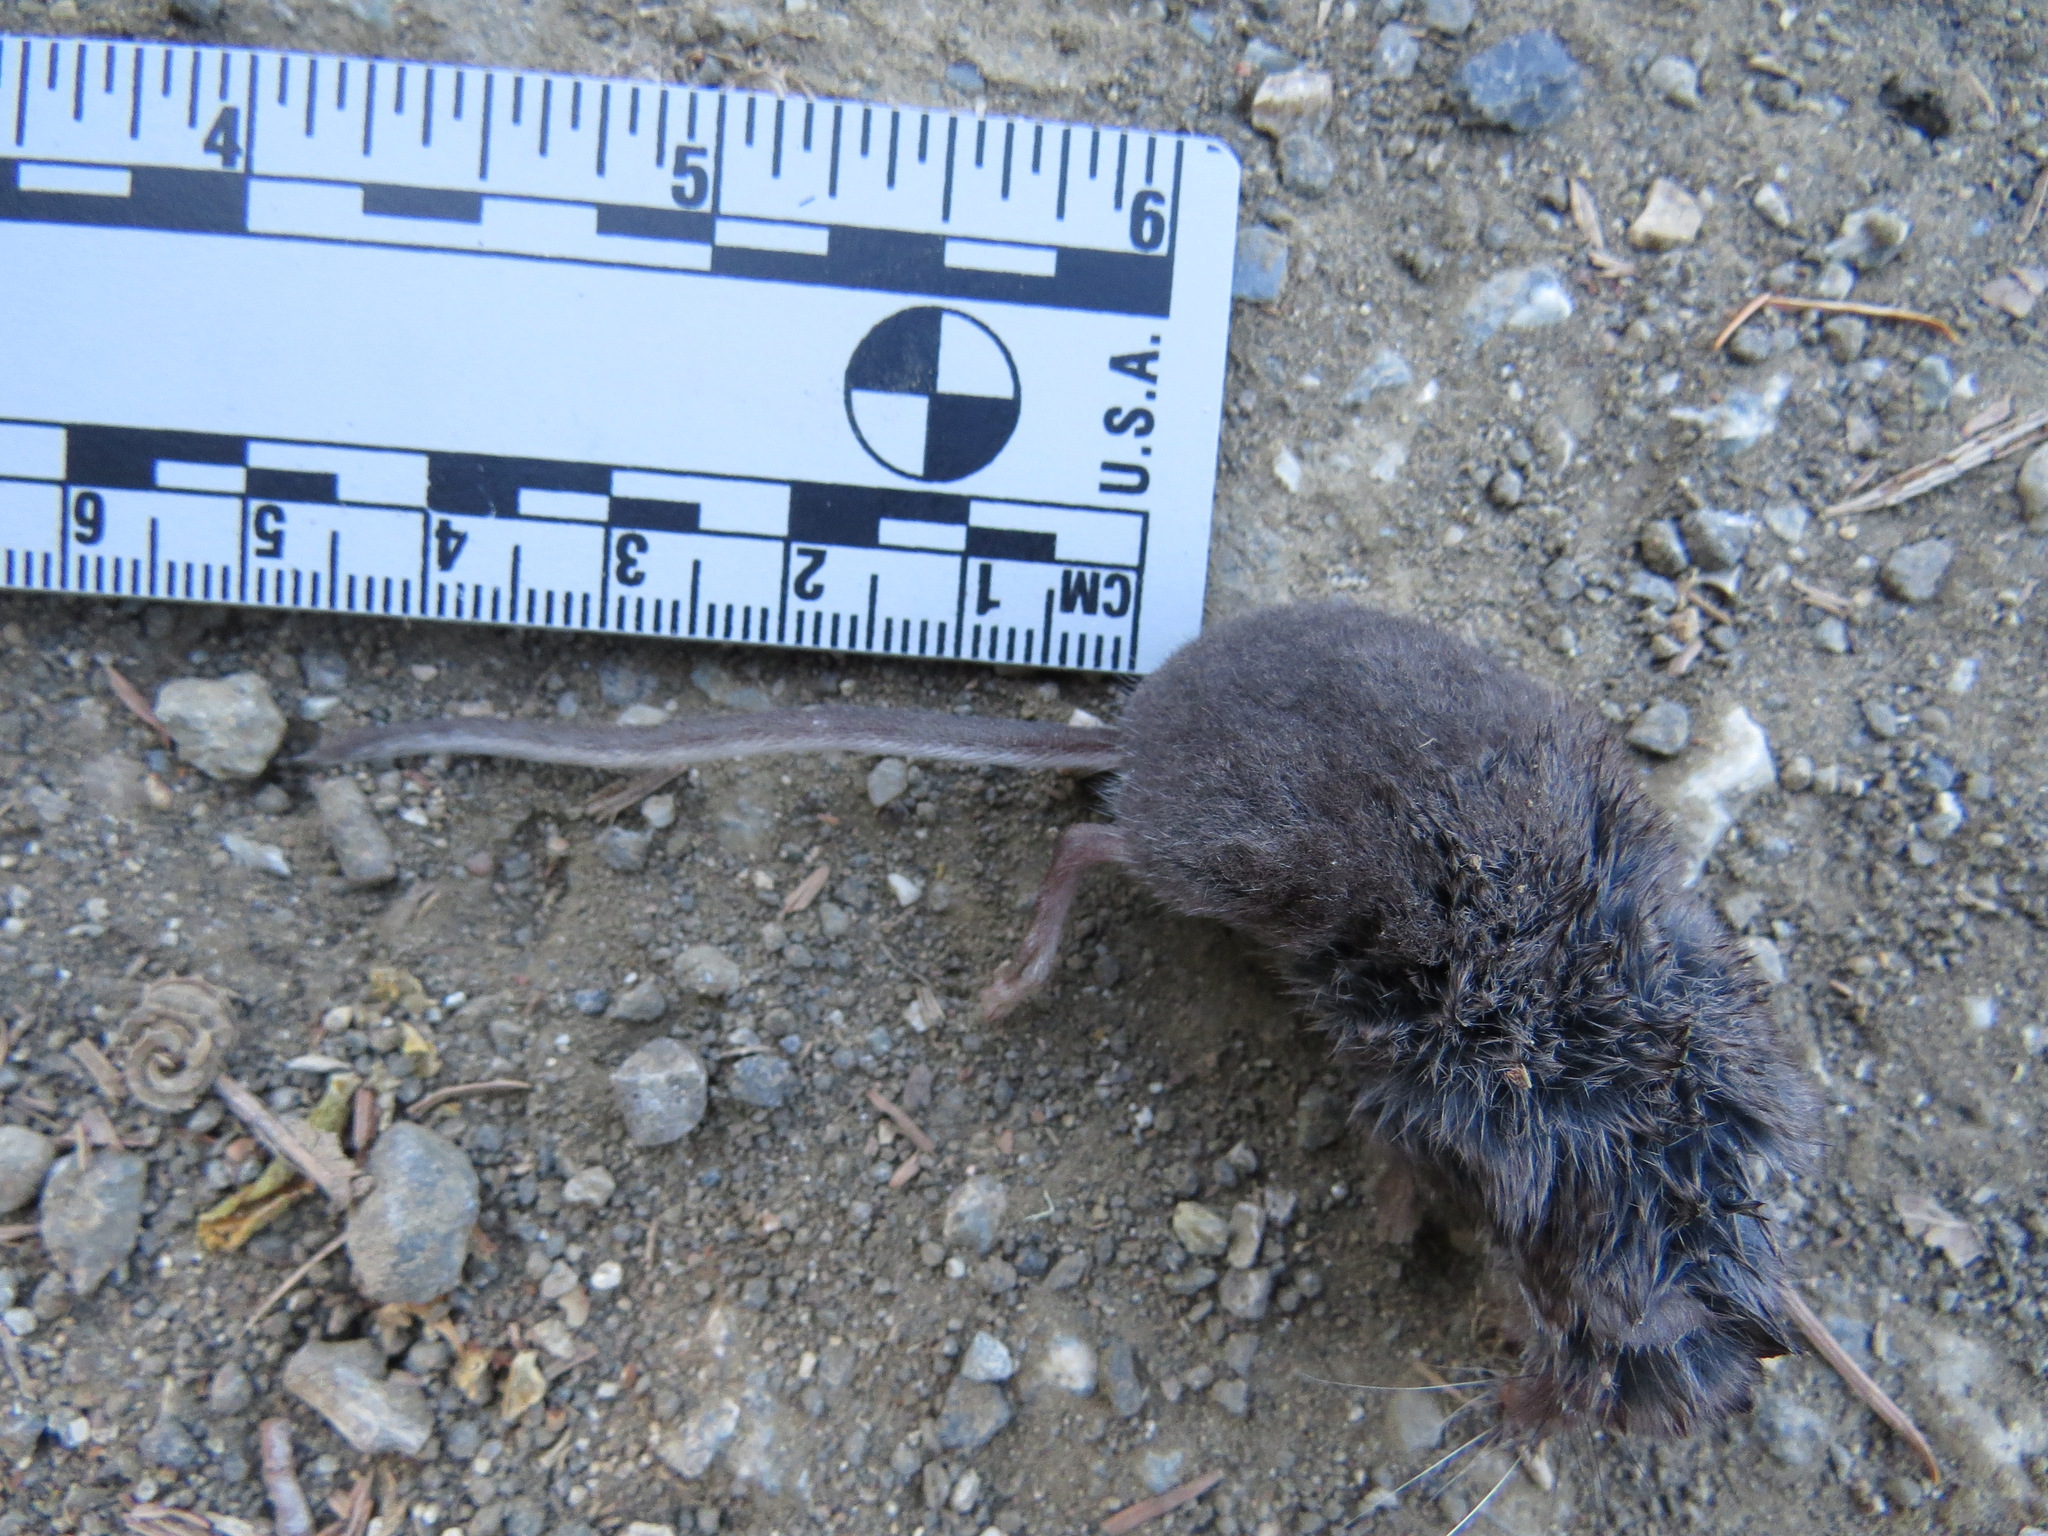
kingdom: Animalia
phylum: Chordata
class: Mammalia
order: Soricomorpha
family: Soricidae
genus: Sorex
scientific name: Sorex vagrans
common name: Vagrant shrew
